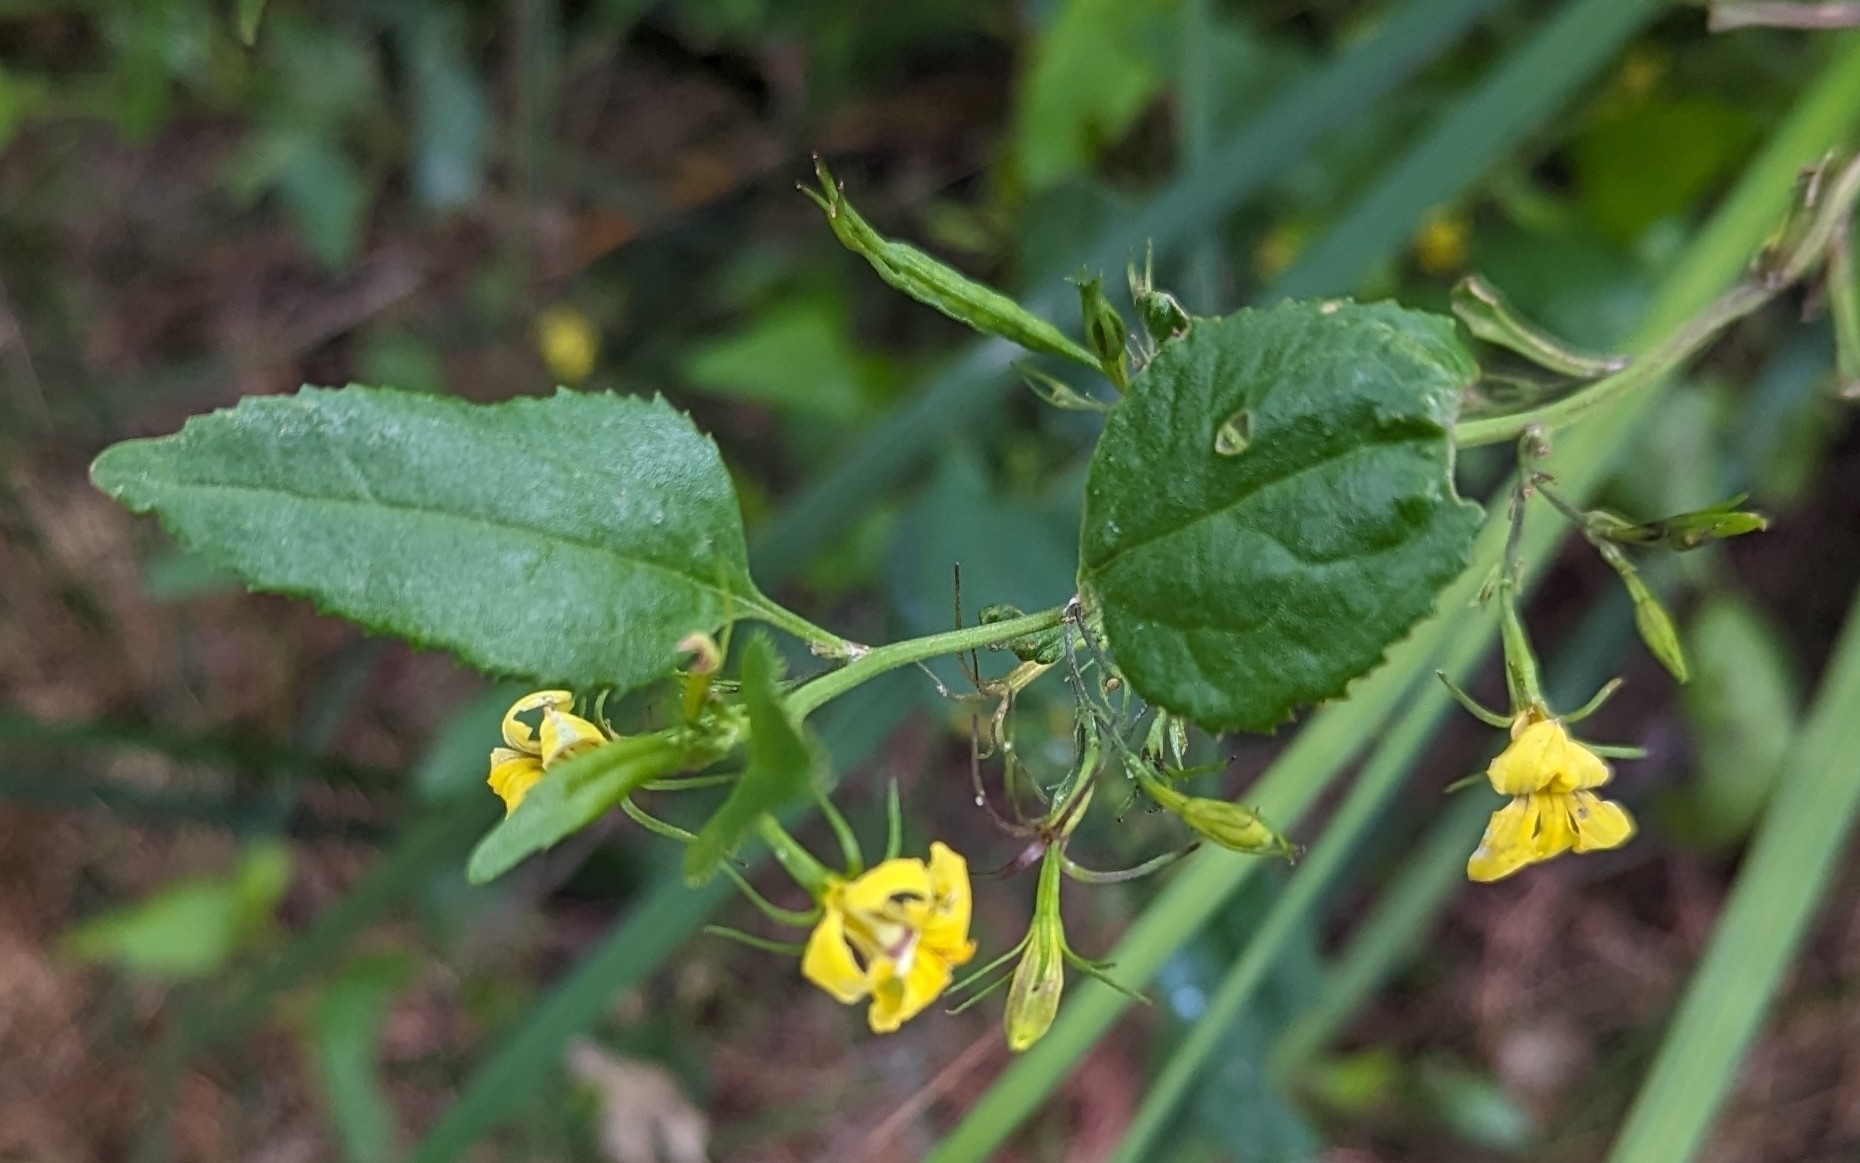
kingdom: Plantae
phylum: Tracheophyta
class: Magnoliopsida
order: Asterales
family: Goodeniaceae
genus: Goodenia
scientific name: Goodenia ovata
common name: Hop goodenia
